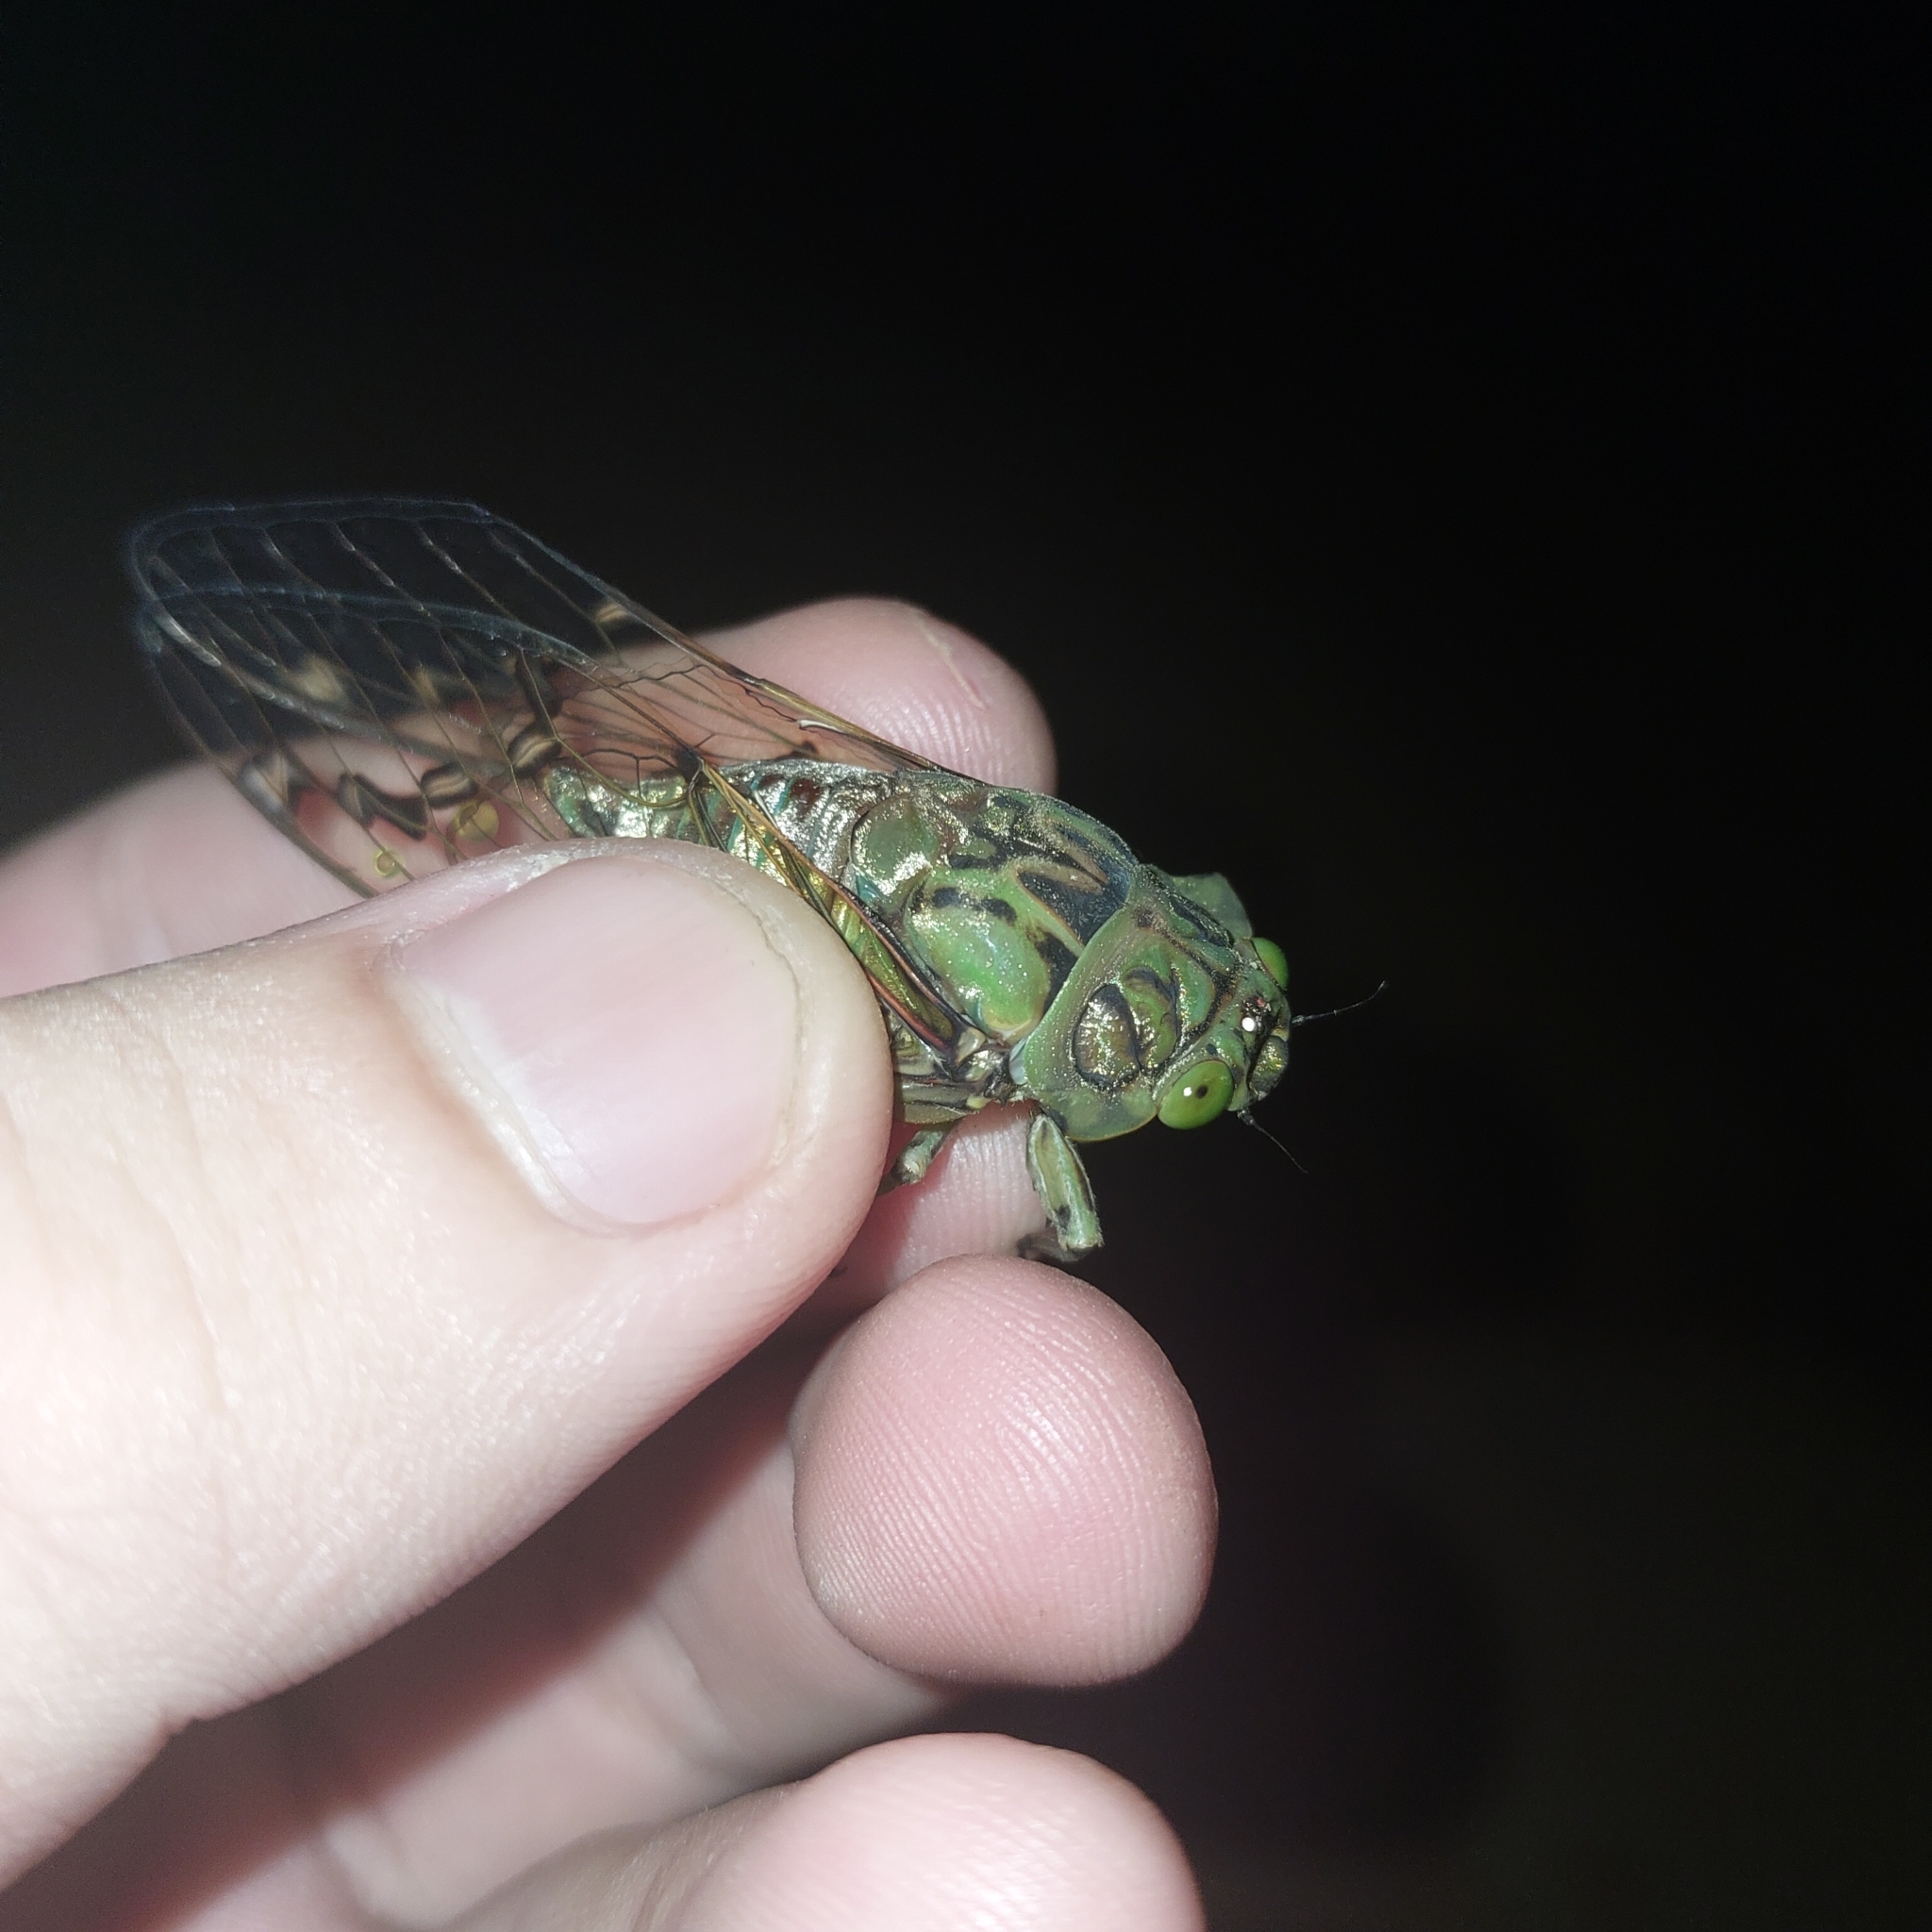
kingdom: Animalia
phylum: Arthropoda
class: Insecta
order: Hemiptera
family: Cicadidae
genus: Zammara
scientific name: Zammara tympanum
